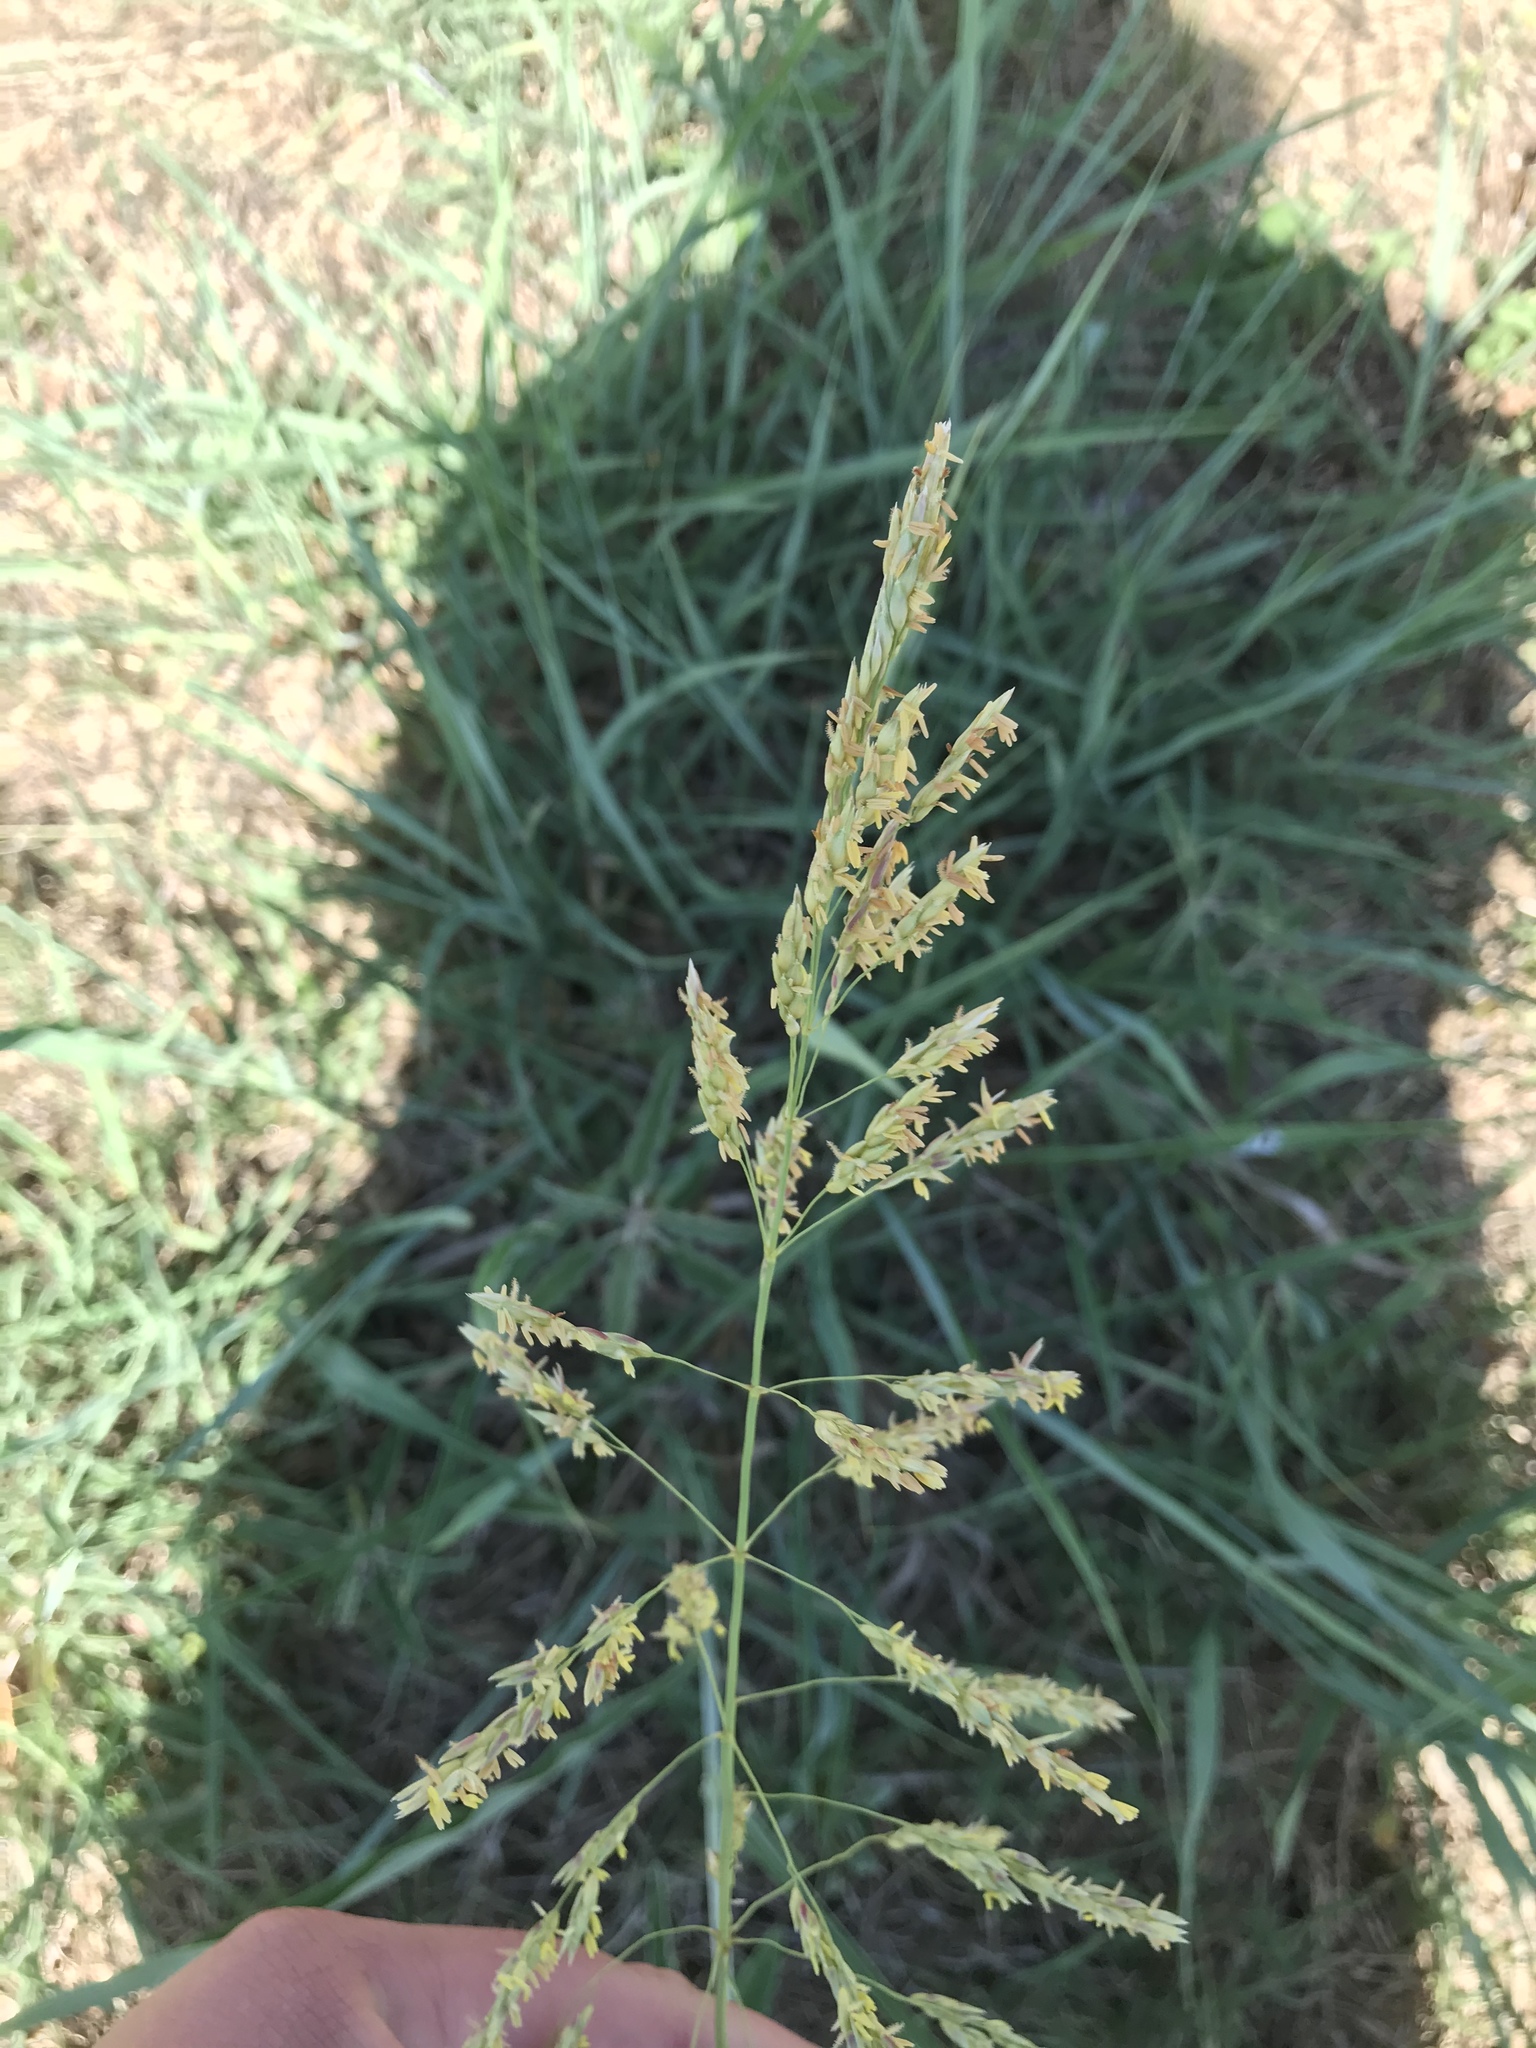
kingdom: Plantae
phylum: Tracheophyta
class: Liliopsida
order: Poales
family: Poaceae
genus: Sorghum
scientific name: Sorghum halepense
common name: Johnson-grass
